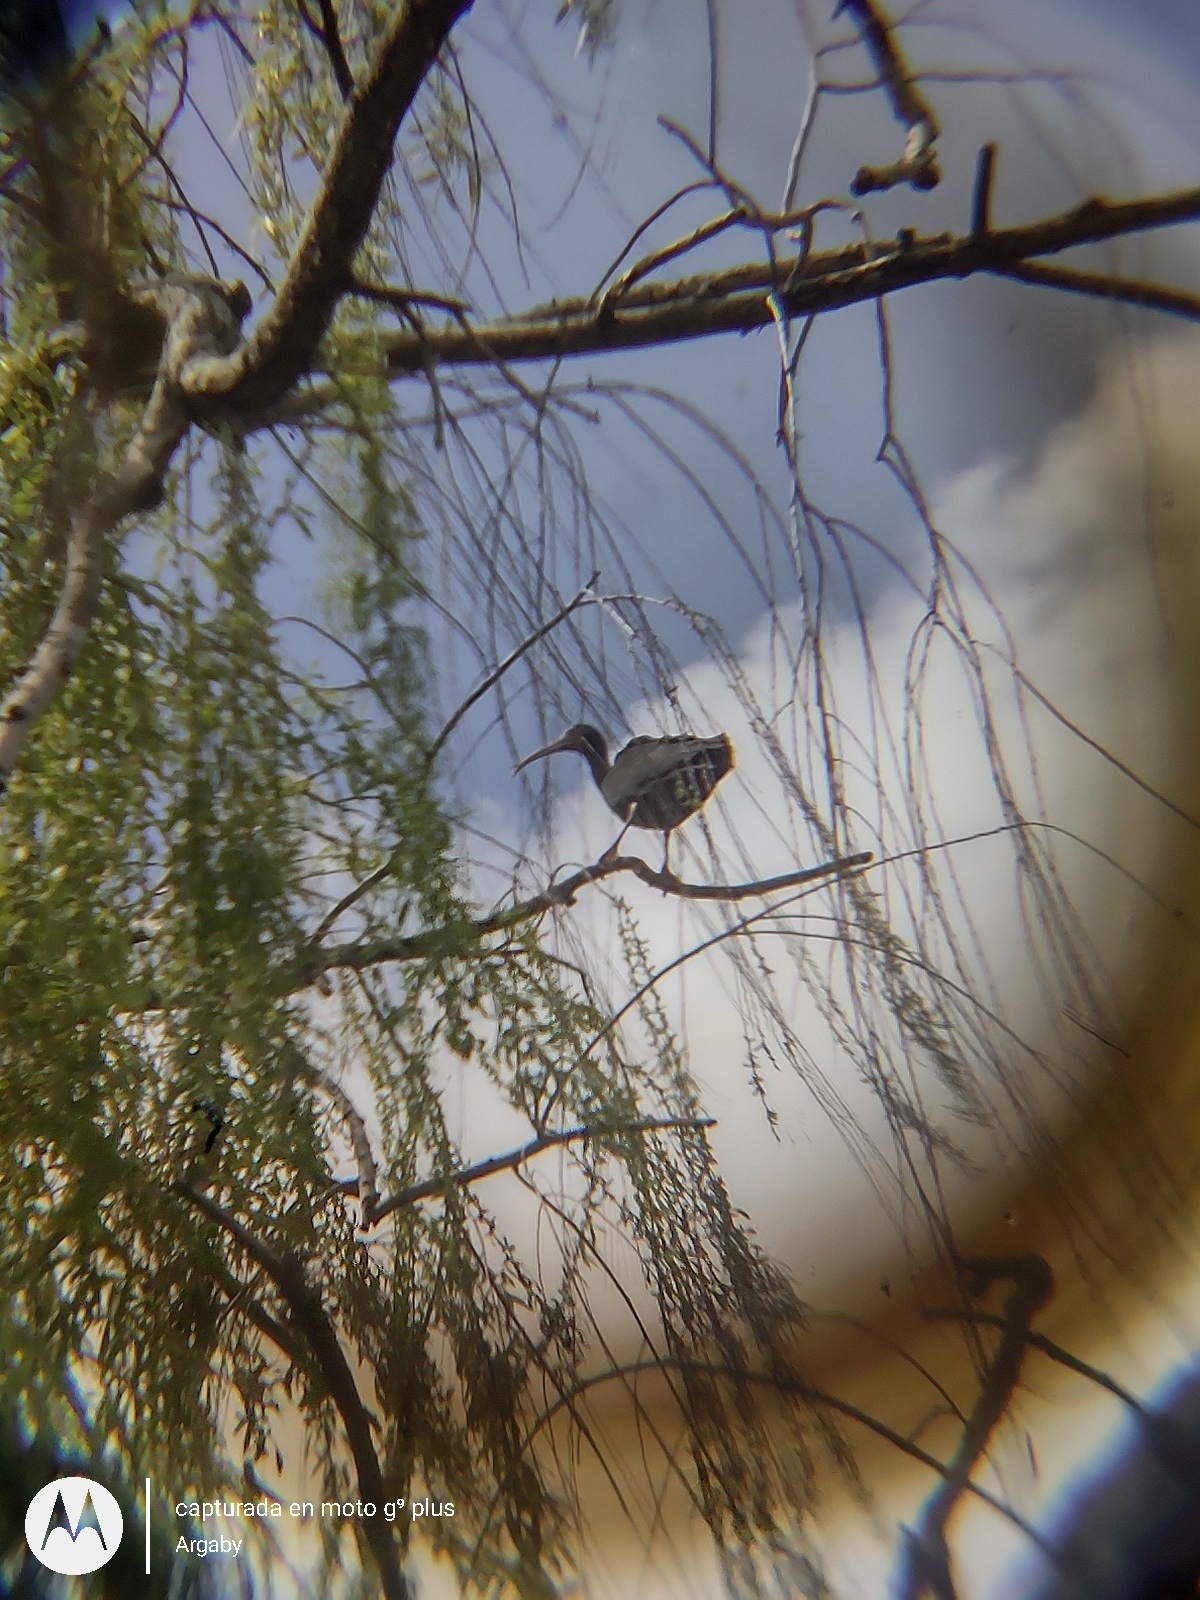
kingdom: Animalia
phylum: Chordata
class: Aves
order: Pelecaniformes
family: Threskiornithidae
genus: Phimosus
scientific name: Phimosus infuscatus
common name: Bare-faced ibis
